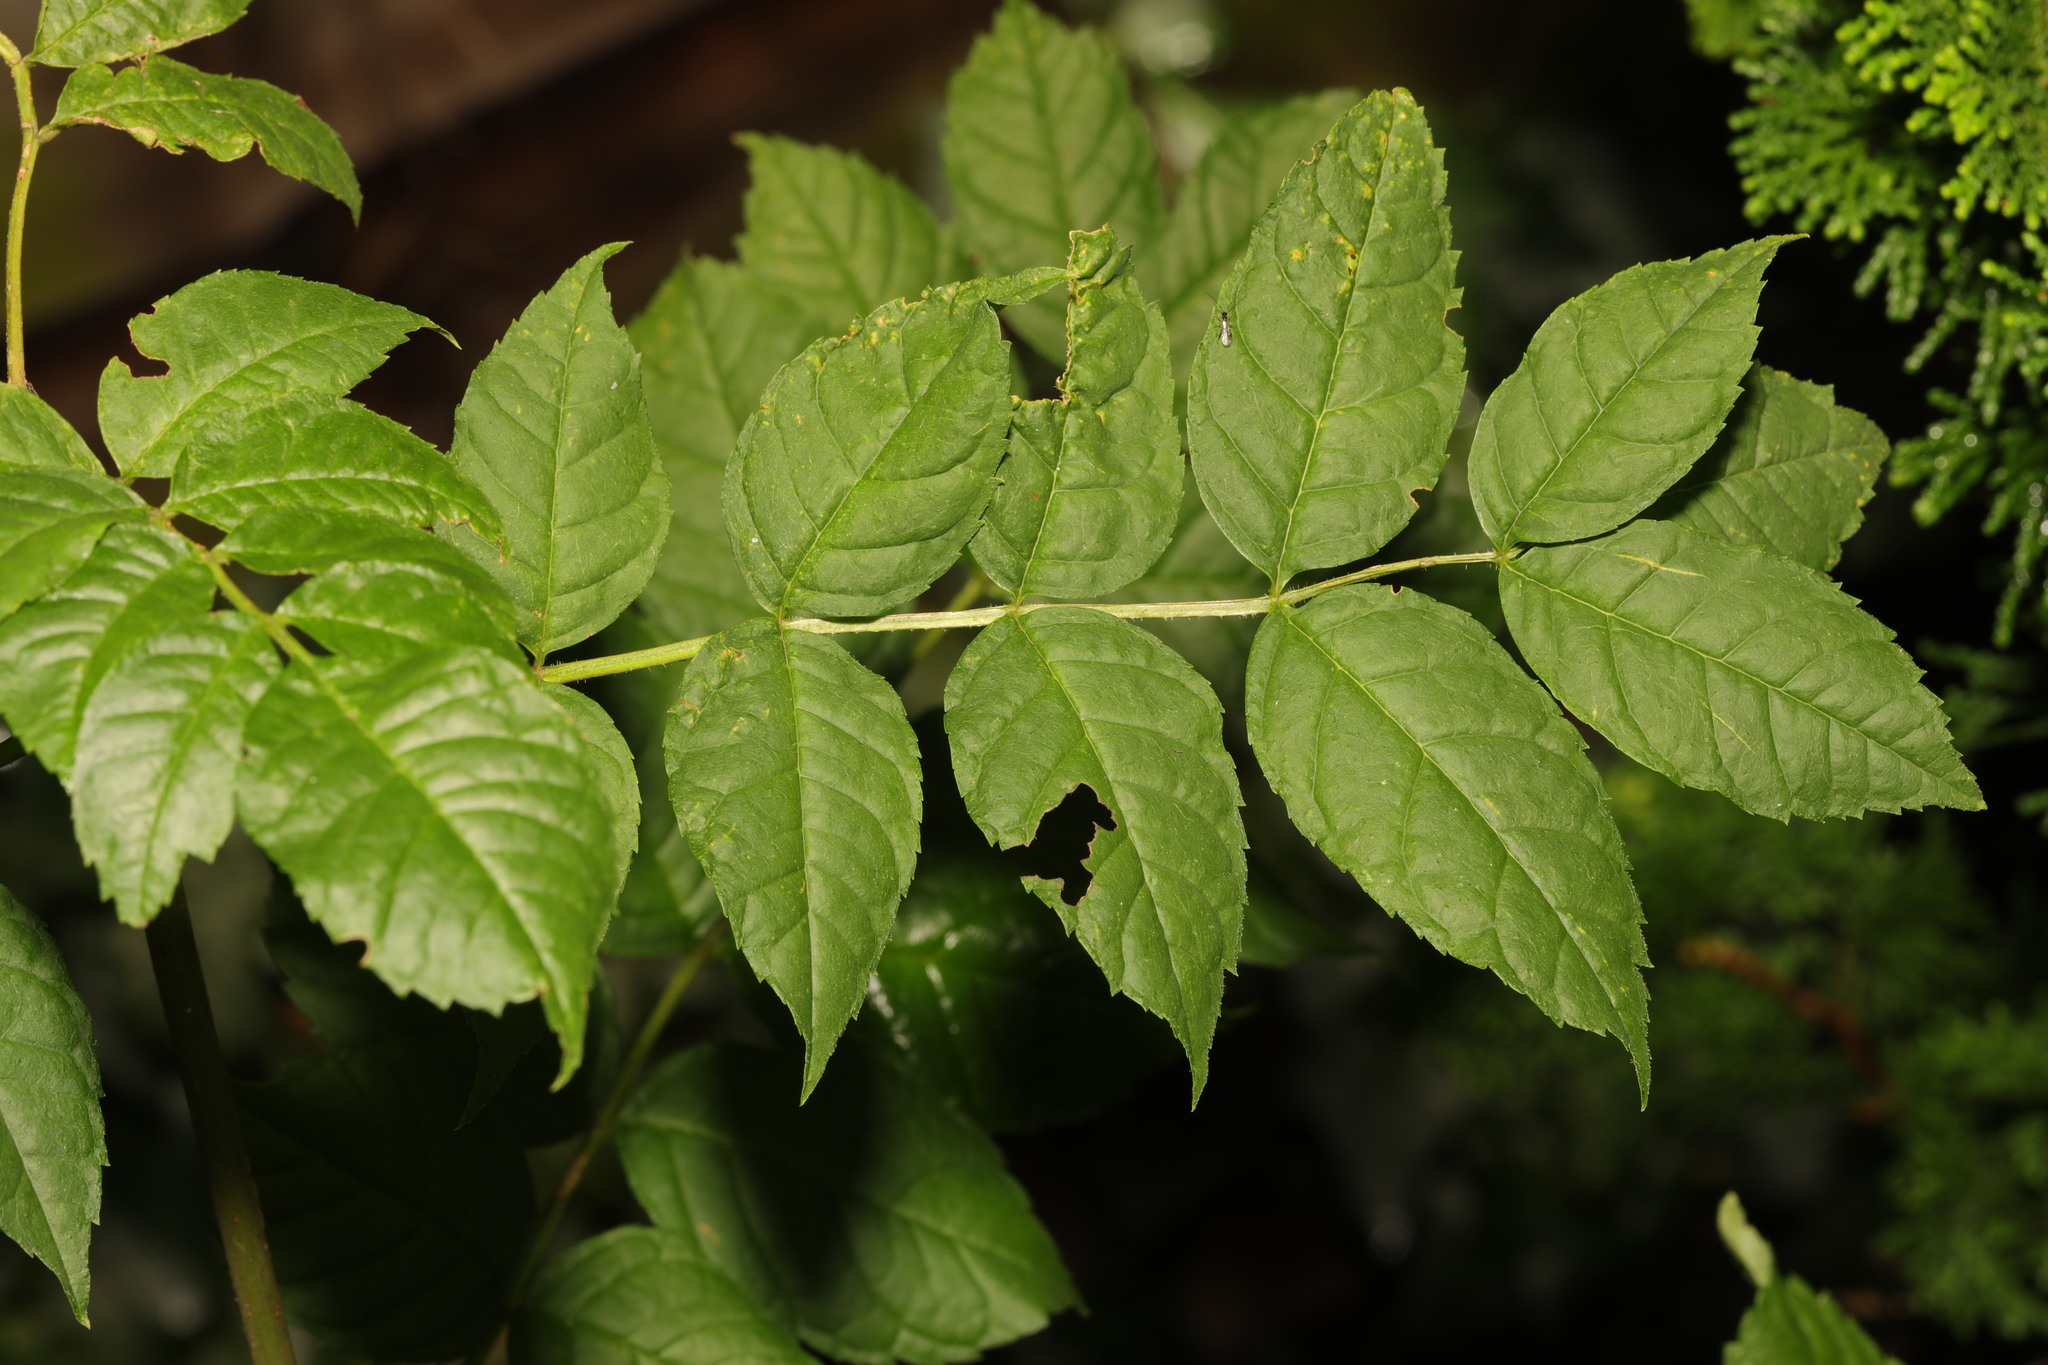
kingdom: Plantae
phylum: Tracheophyta
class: Magnoliopsida
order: Lamiales
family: Oleaceae
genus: Fraxinus
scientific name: Fraxinus excelsior
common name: European ash
